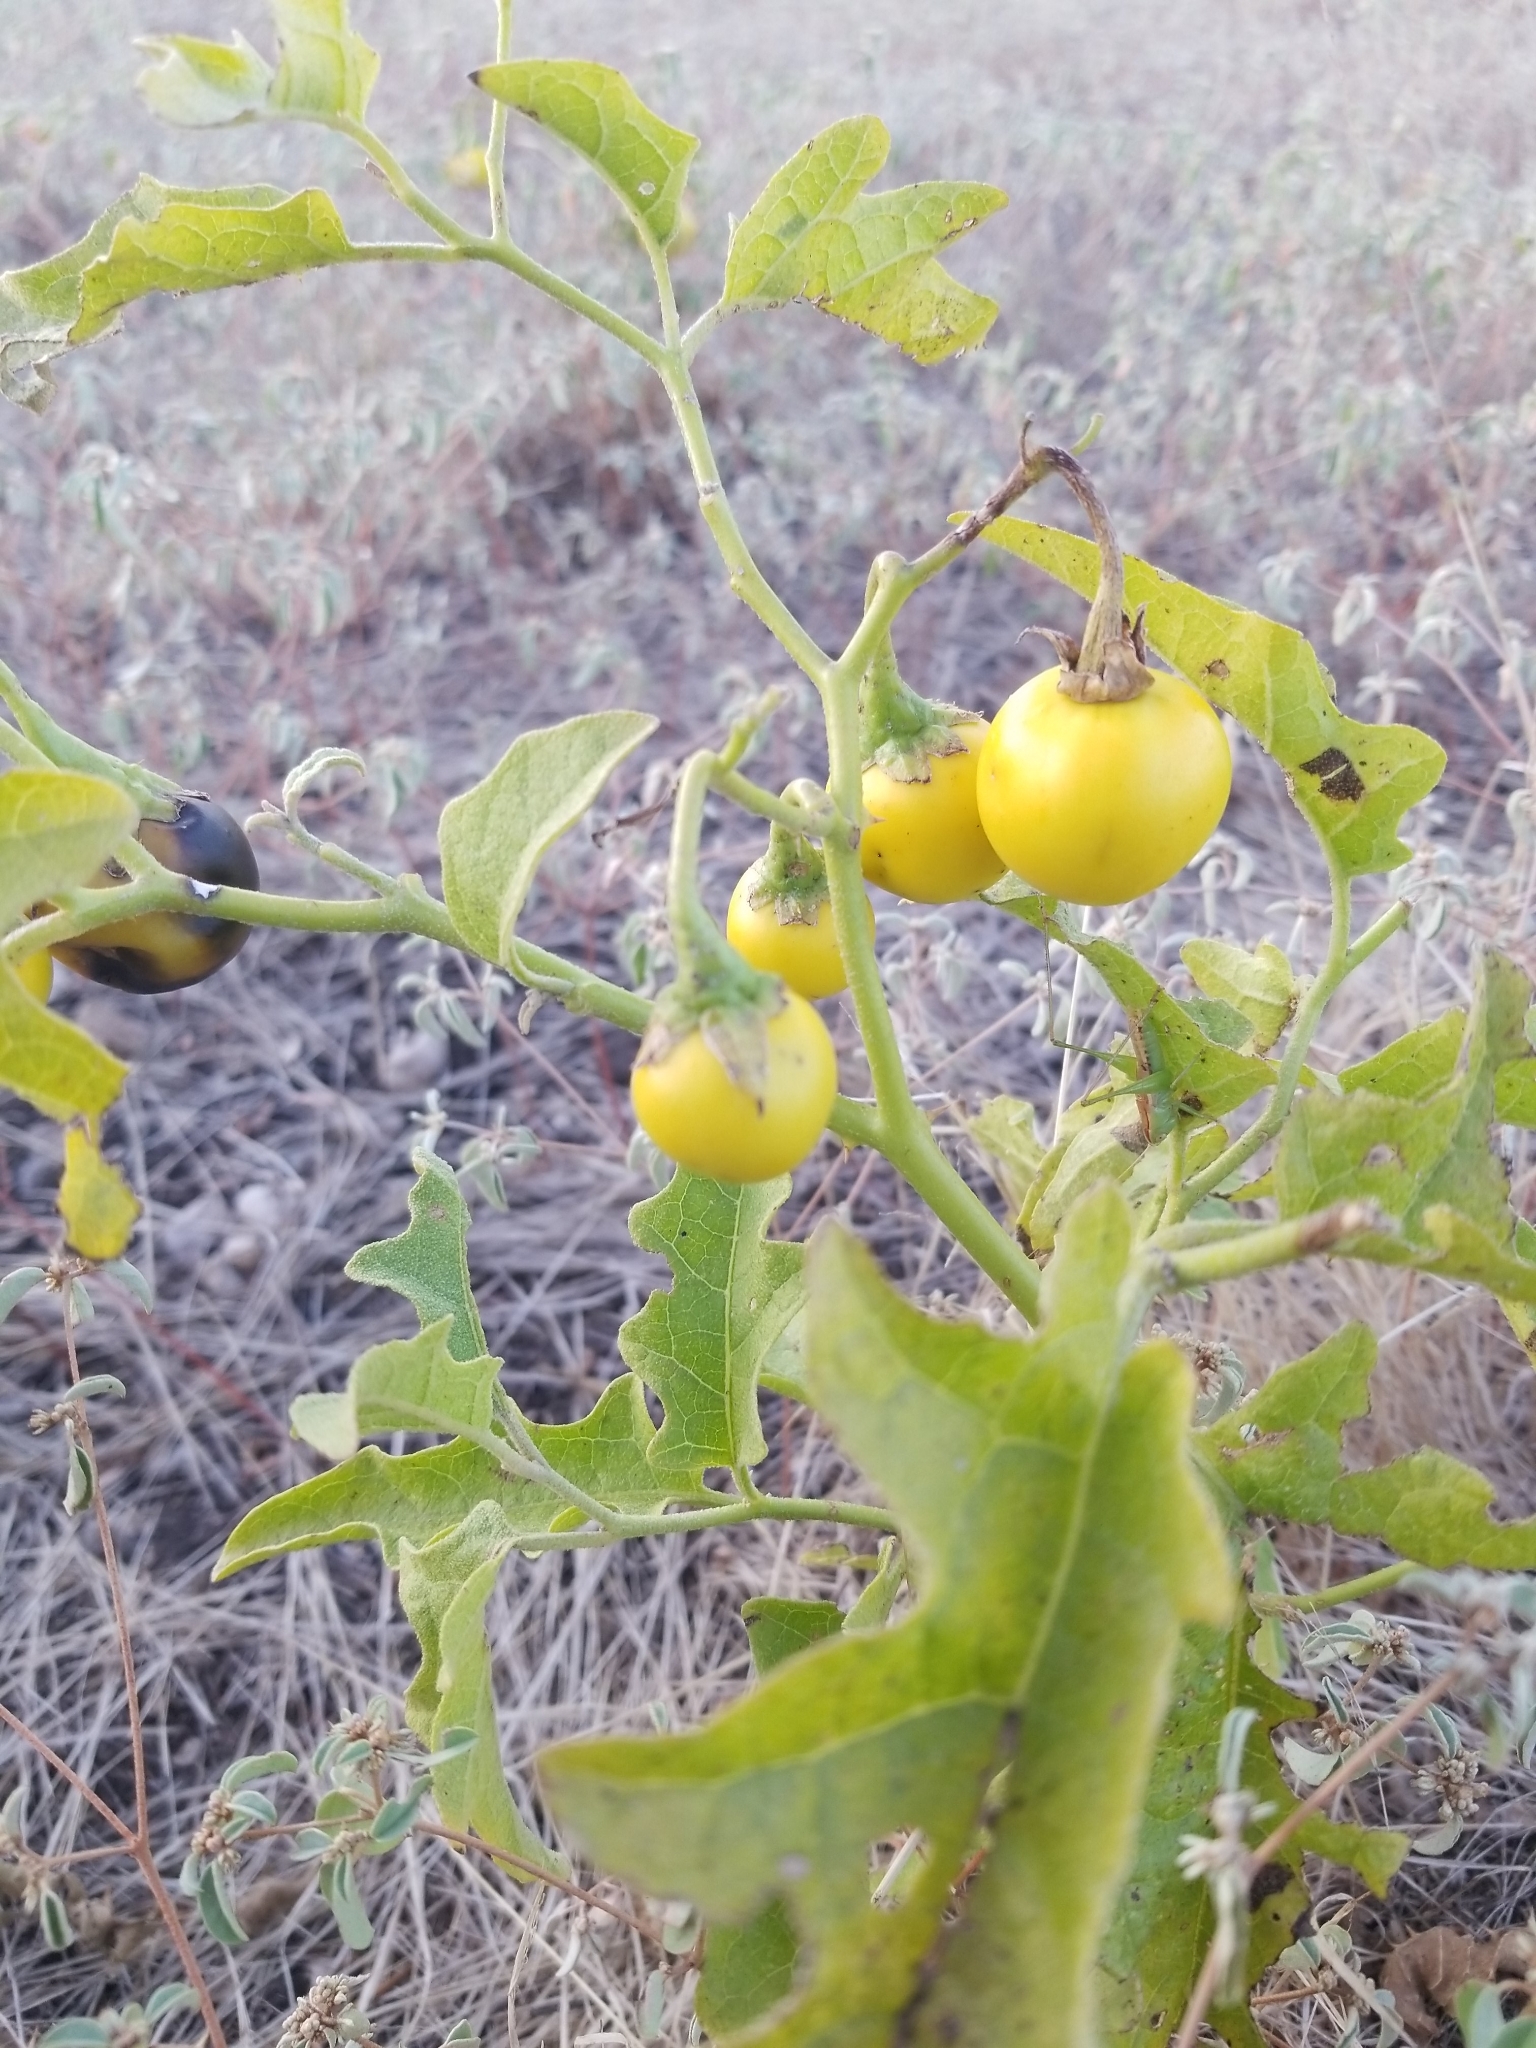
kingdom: Plantae
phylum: Tracheophyta
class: Magnoliopsida
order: Solanales
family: Solanaceae
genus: Solanum
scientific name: Solanum dimidiatum
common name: Carolina horse-nettle
